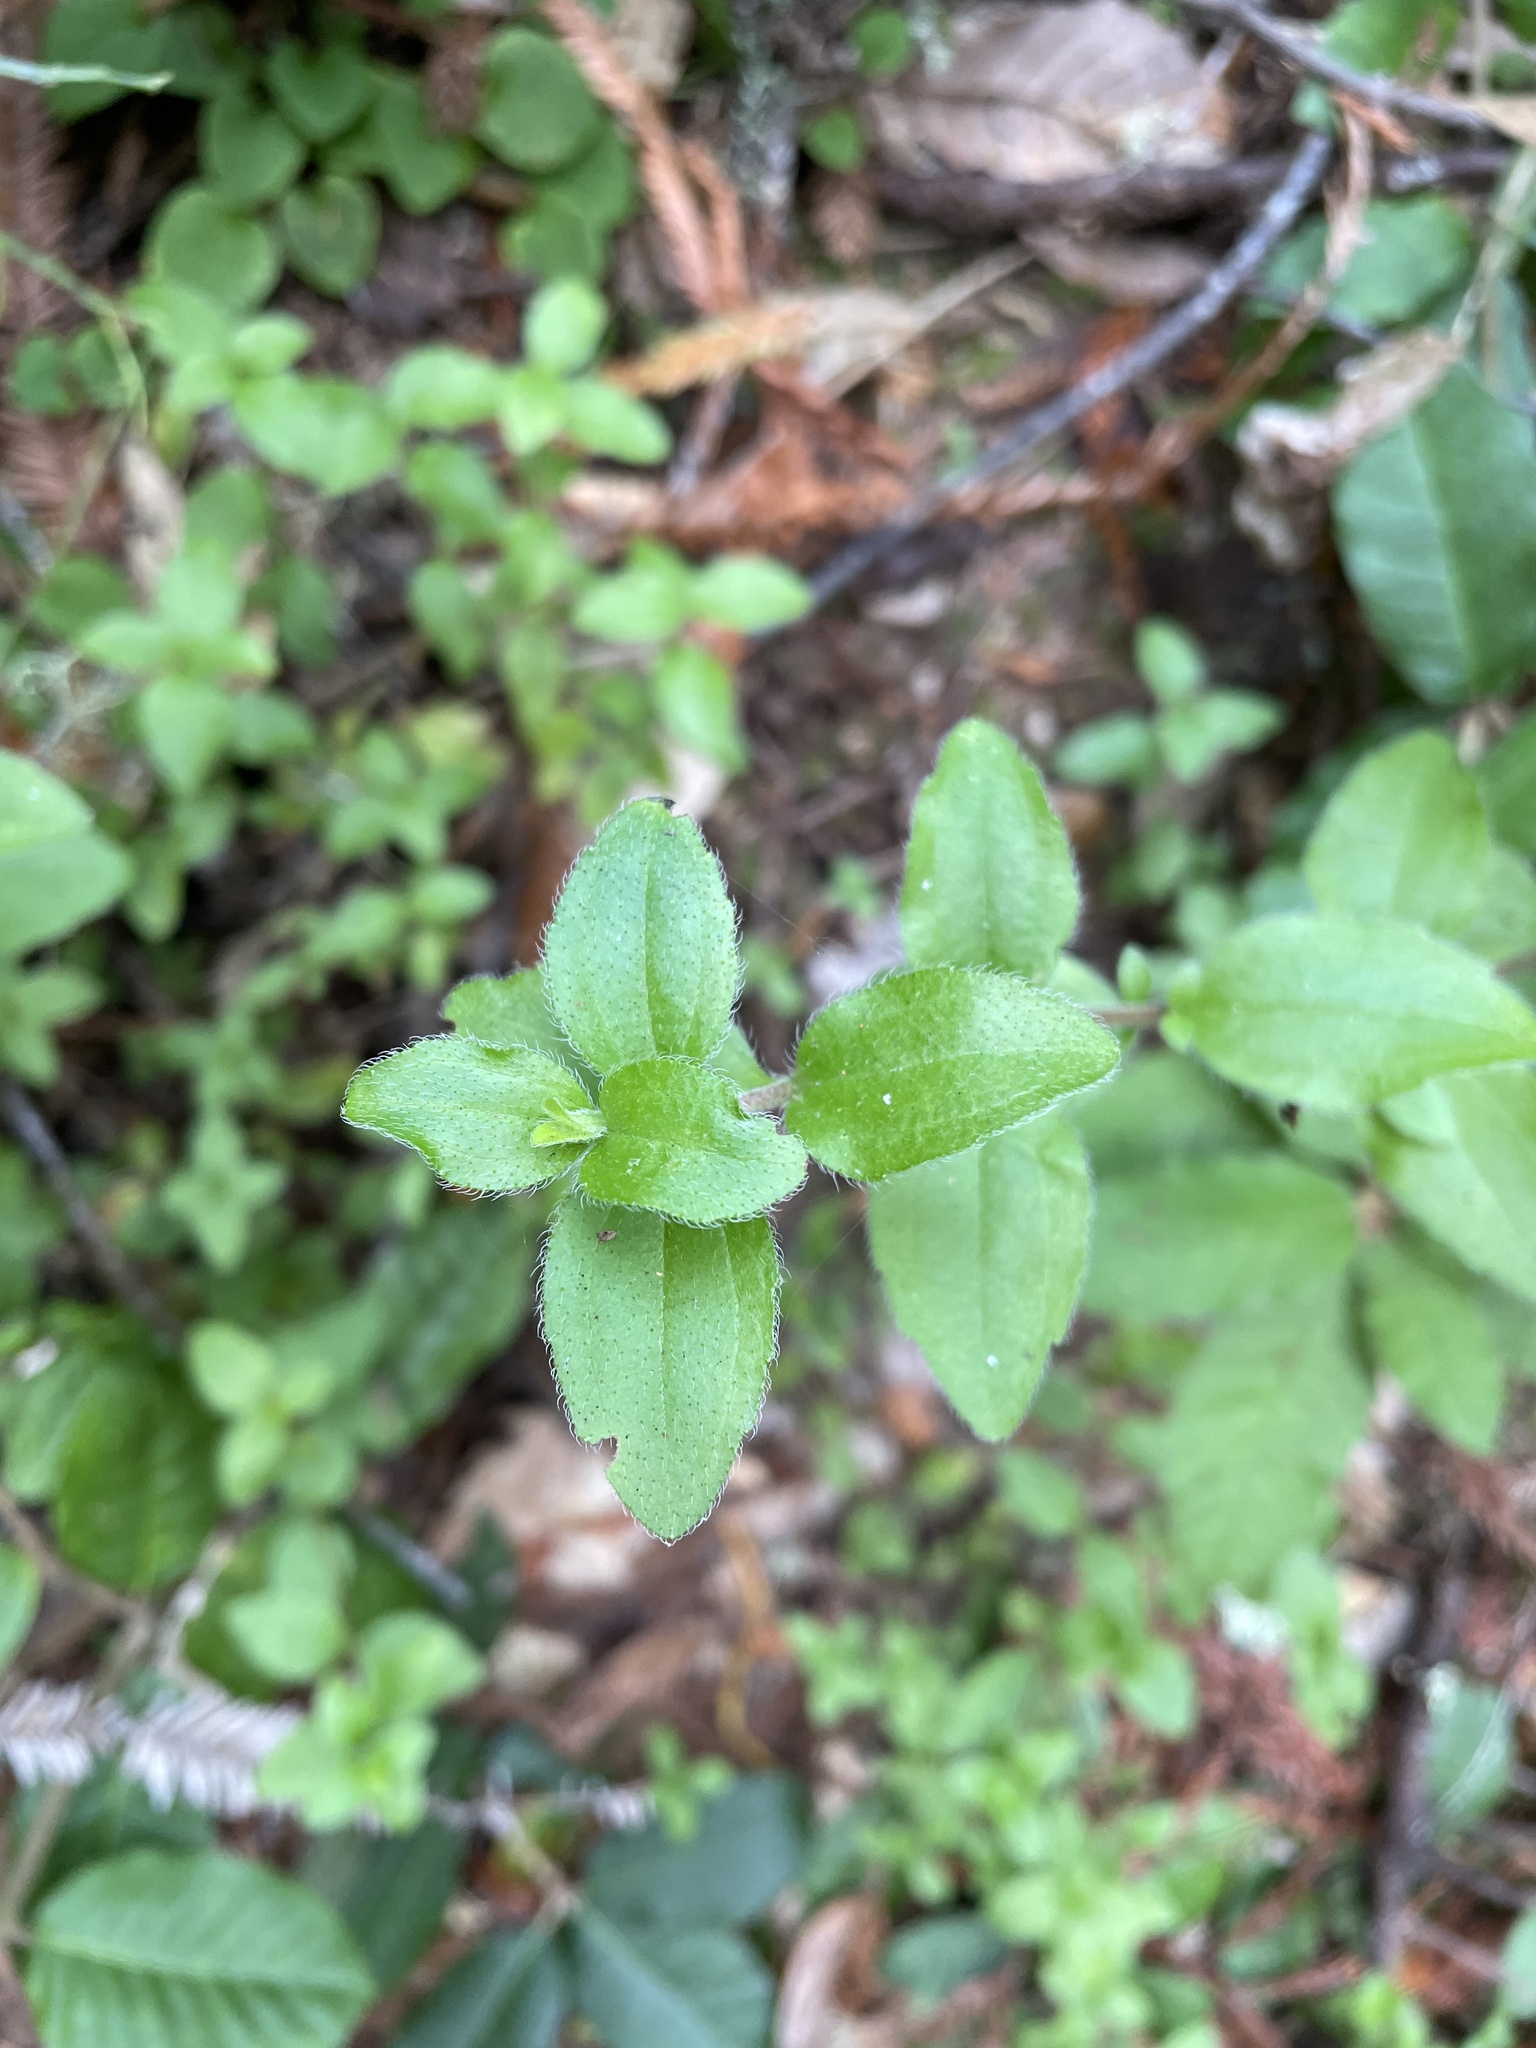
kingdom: Plantae
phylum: Tracheophyta
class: Magnoliopsida
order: Cornales
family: Hydrangeaceae
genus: Whipplea
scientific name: Whipplea modesta
